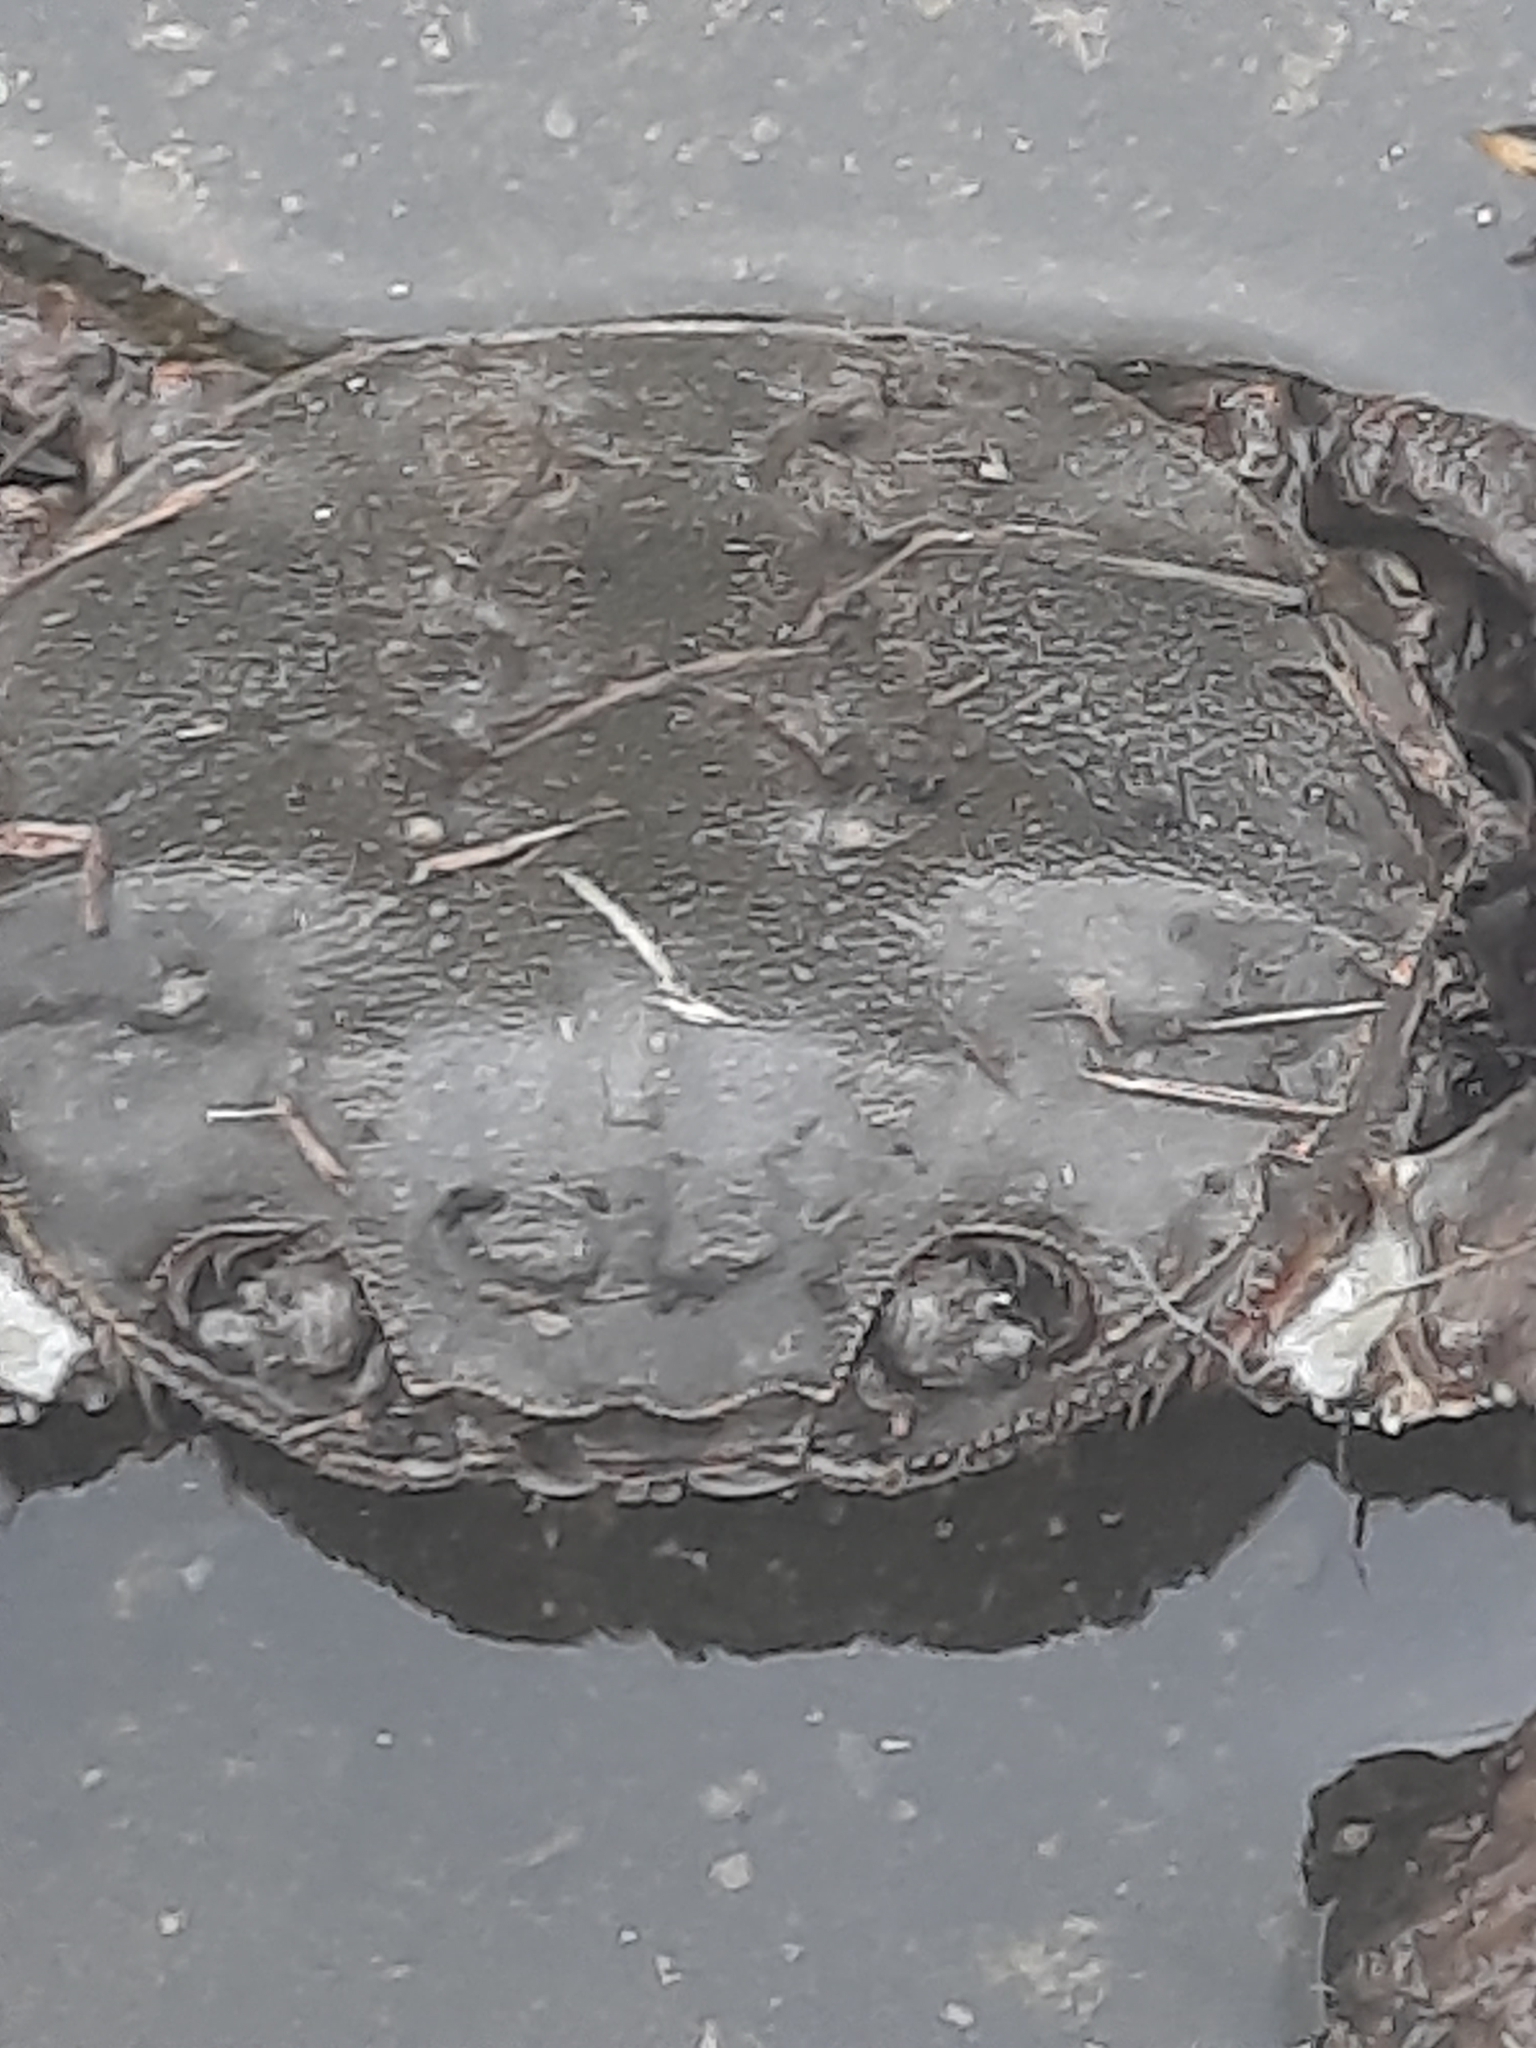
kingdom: Animalia
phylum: Arthropoda
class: Malacostraca
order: Decapoda
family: Varunidae
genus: Eriocheir
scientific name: Eriocheir japonica
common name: Japanese mitten crab
